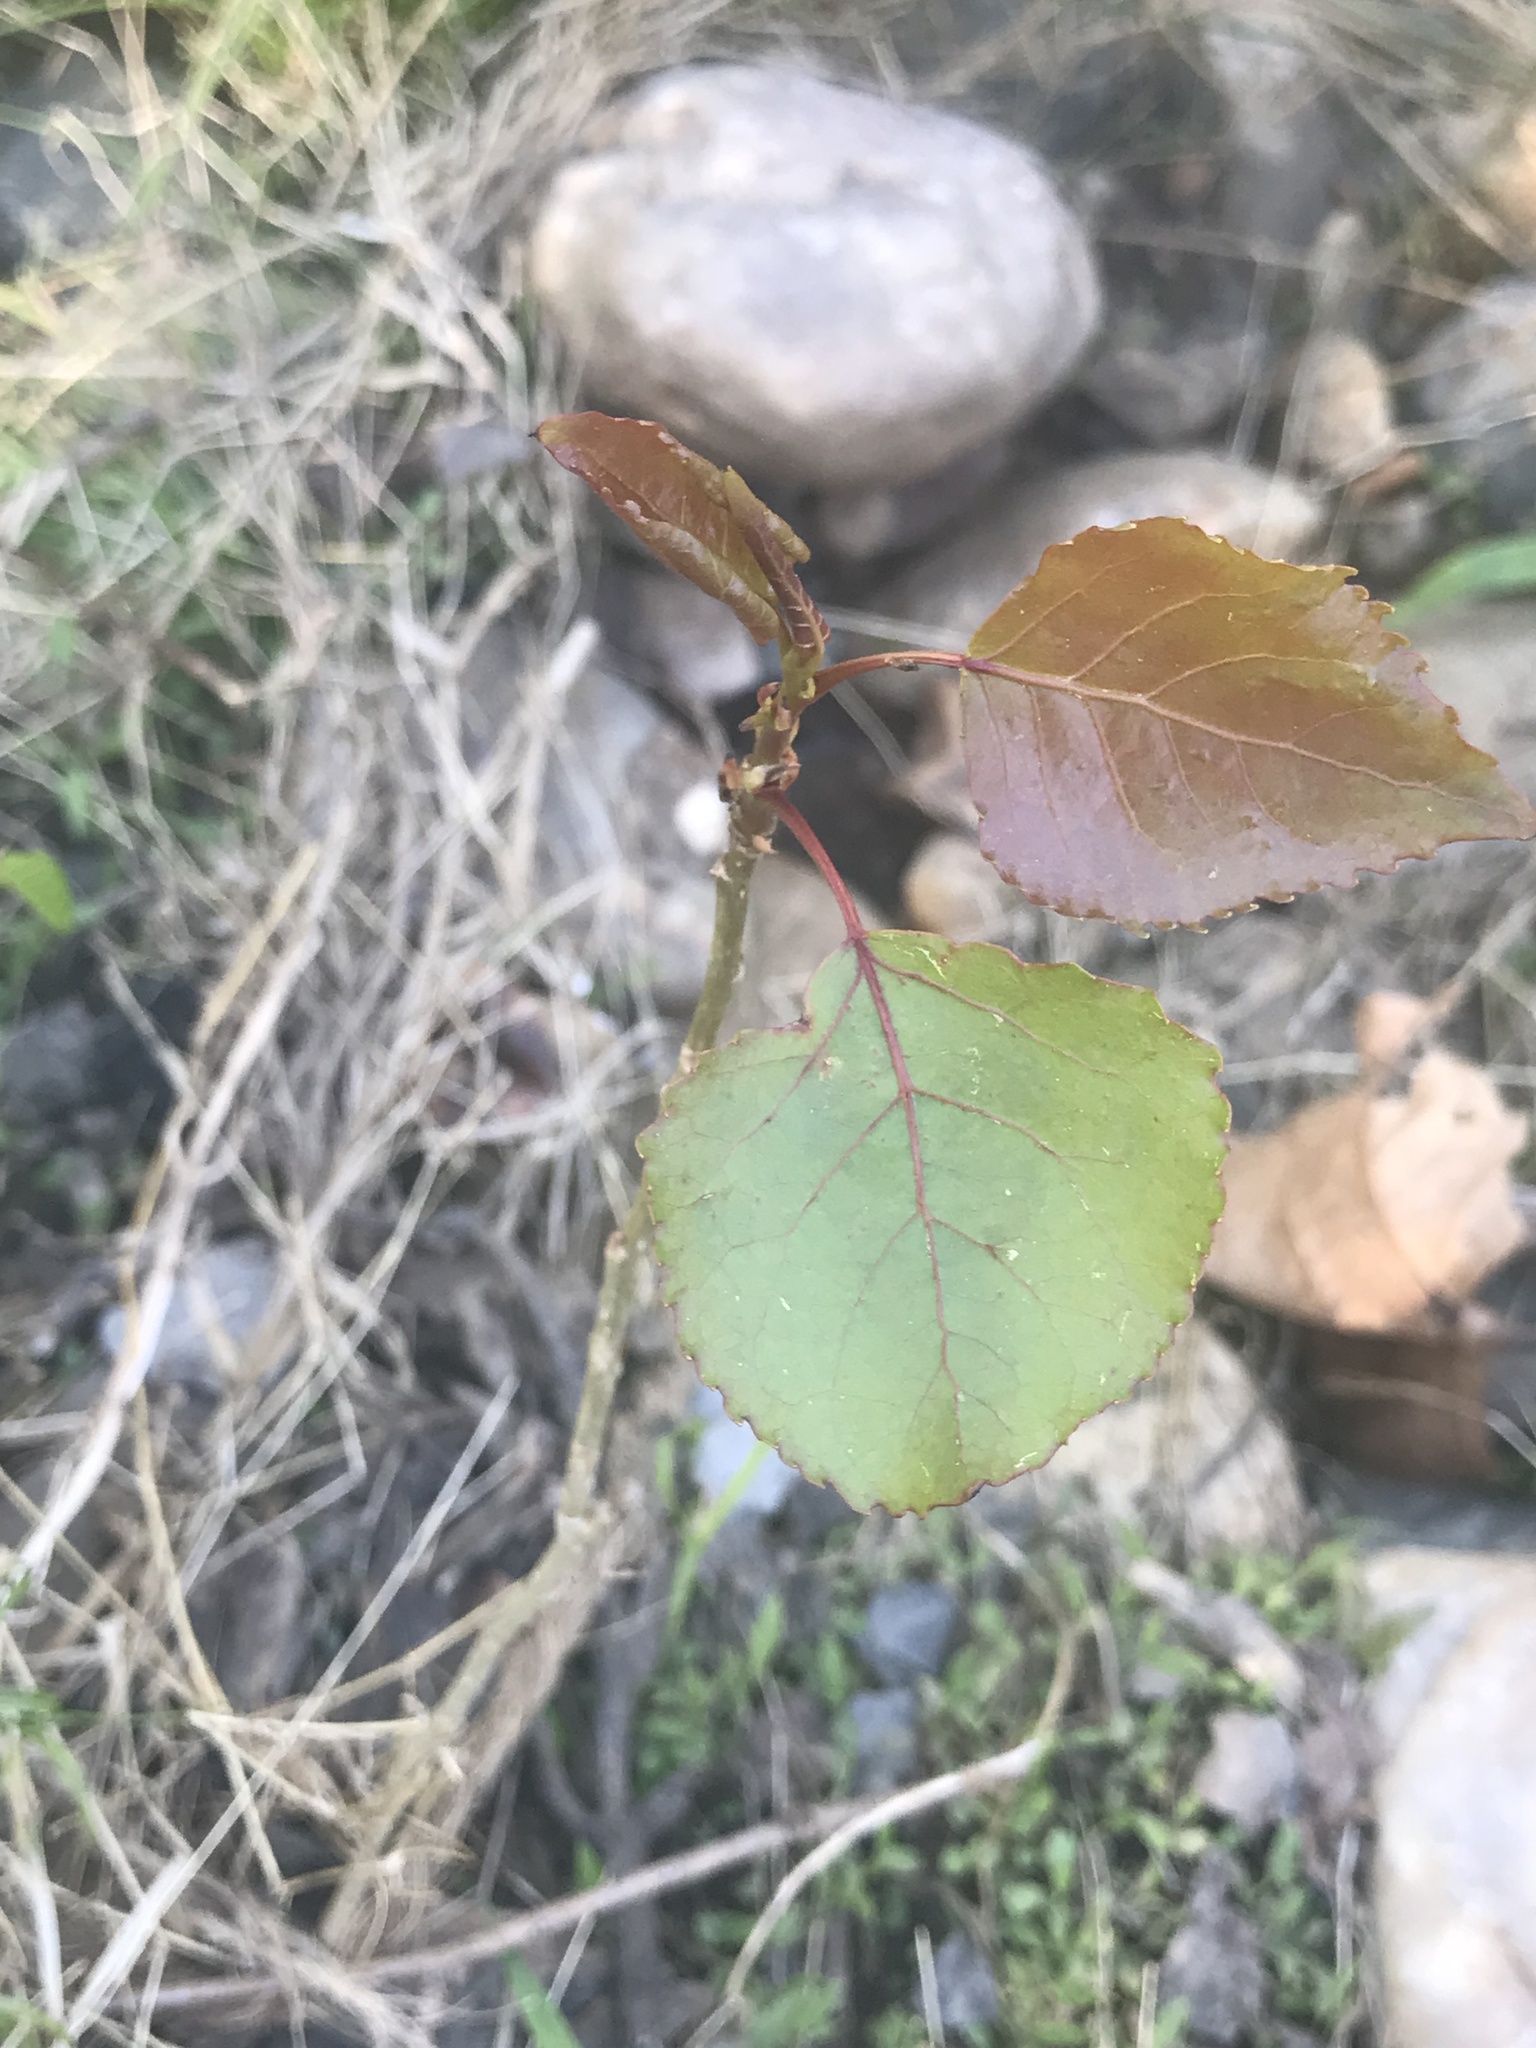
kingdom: Plantae
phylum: Tracheophyta
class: Magnoliopsida
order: Malpighiales
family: Salicaceae
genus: Populus
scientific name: Populus deltoides
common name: Eastern cottonwood
